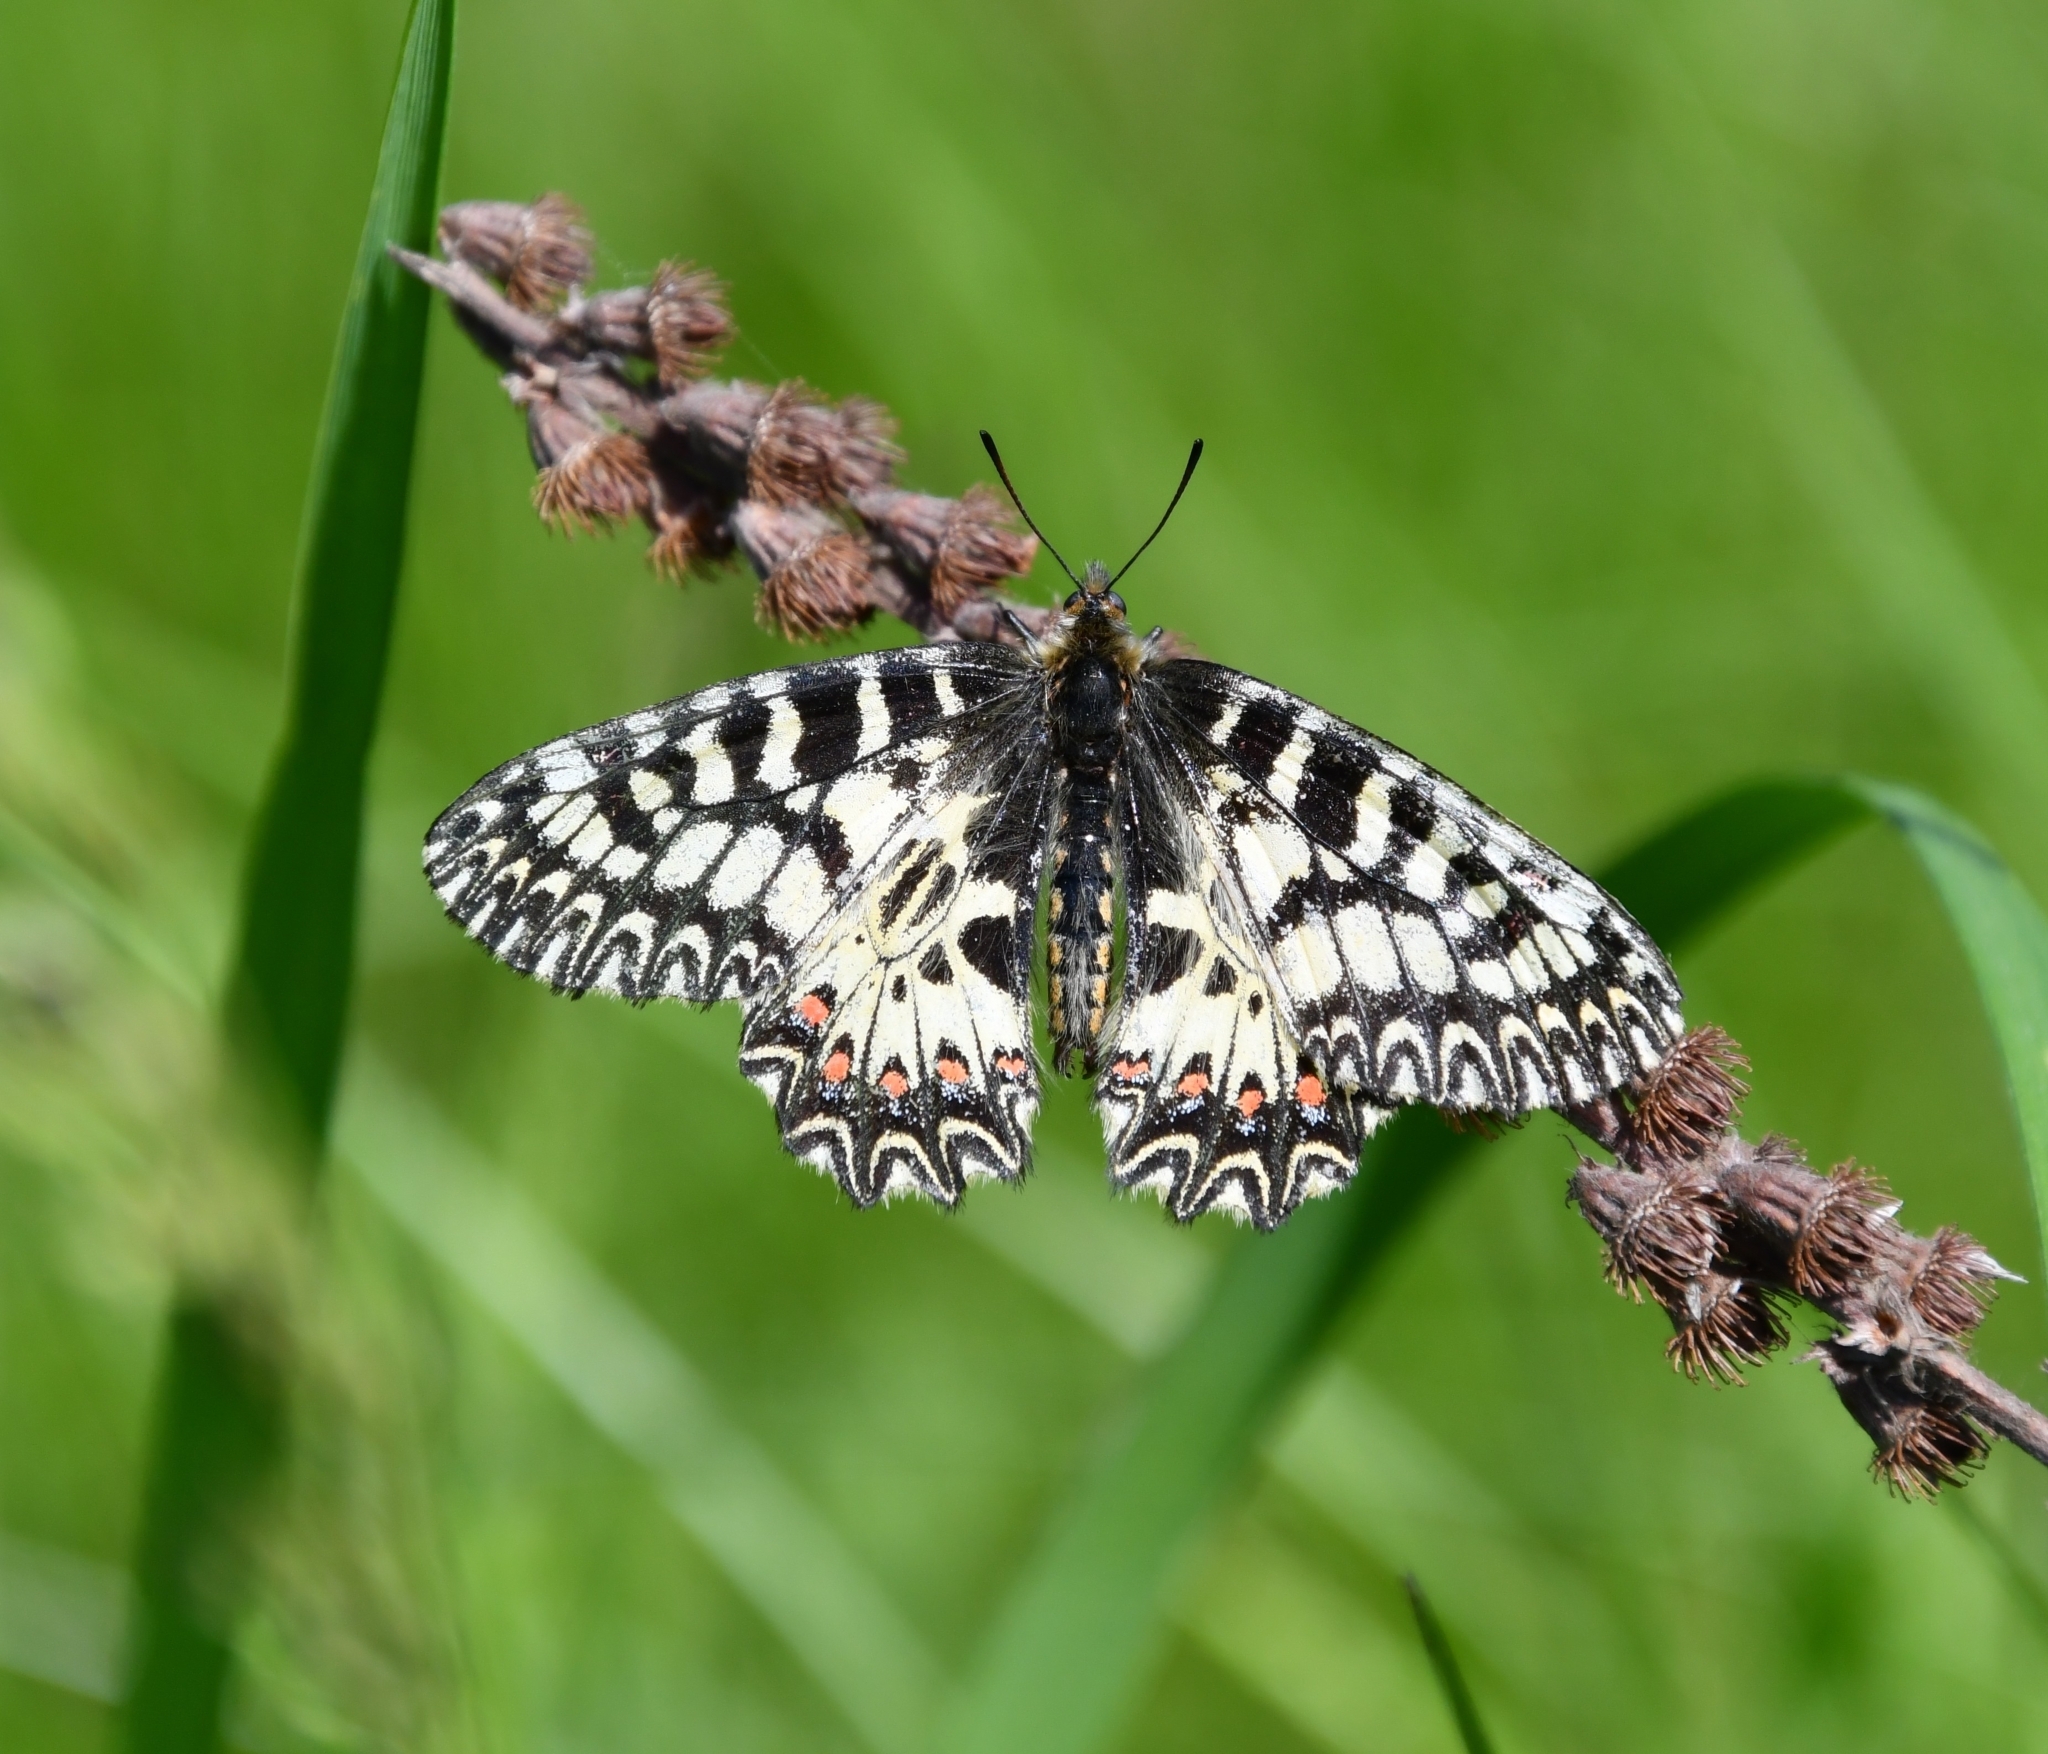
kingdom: Animalia
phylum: Arthropoda
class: Insecta
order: Lepidoptera
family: Papilionidae
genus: Zerynthia
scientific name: Zerynthia polyxena
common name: Southern festoon
